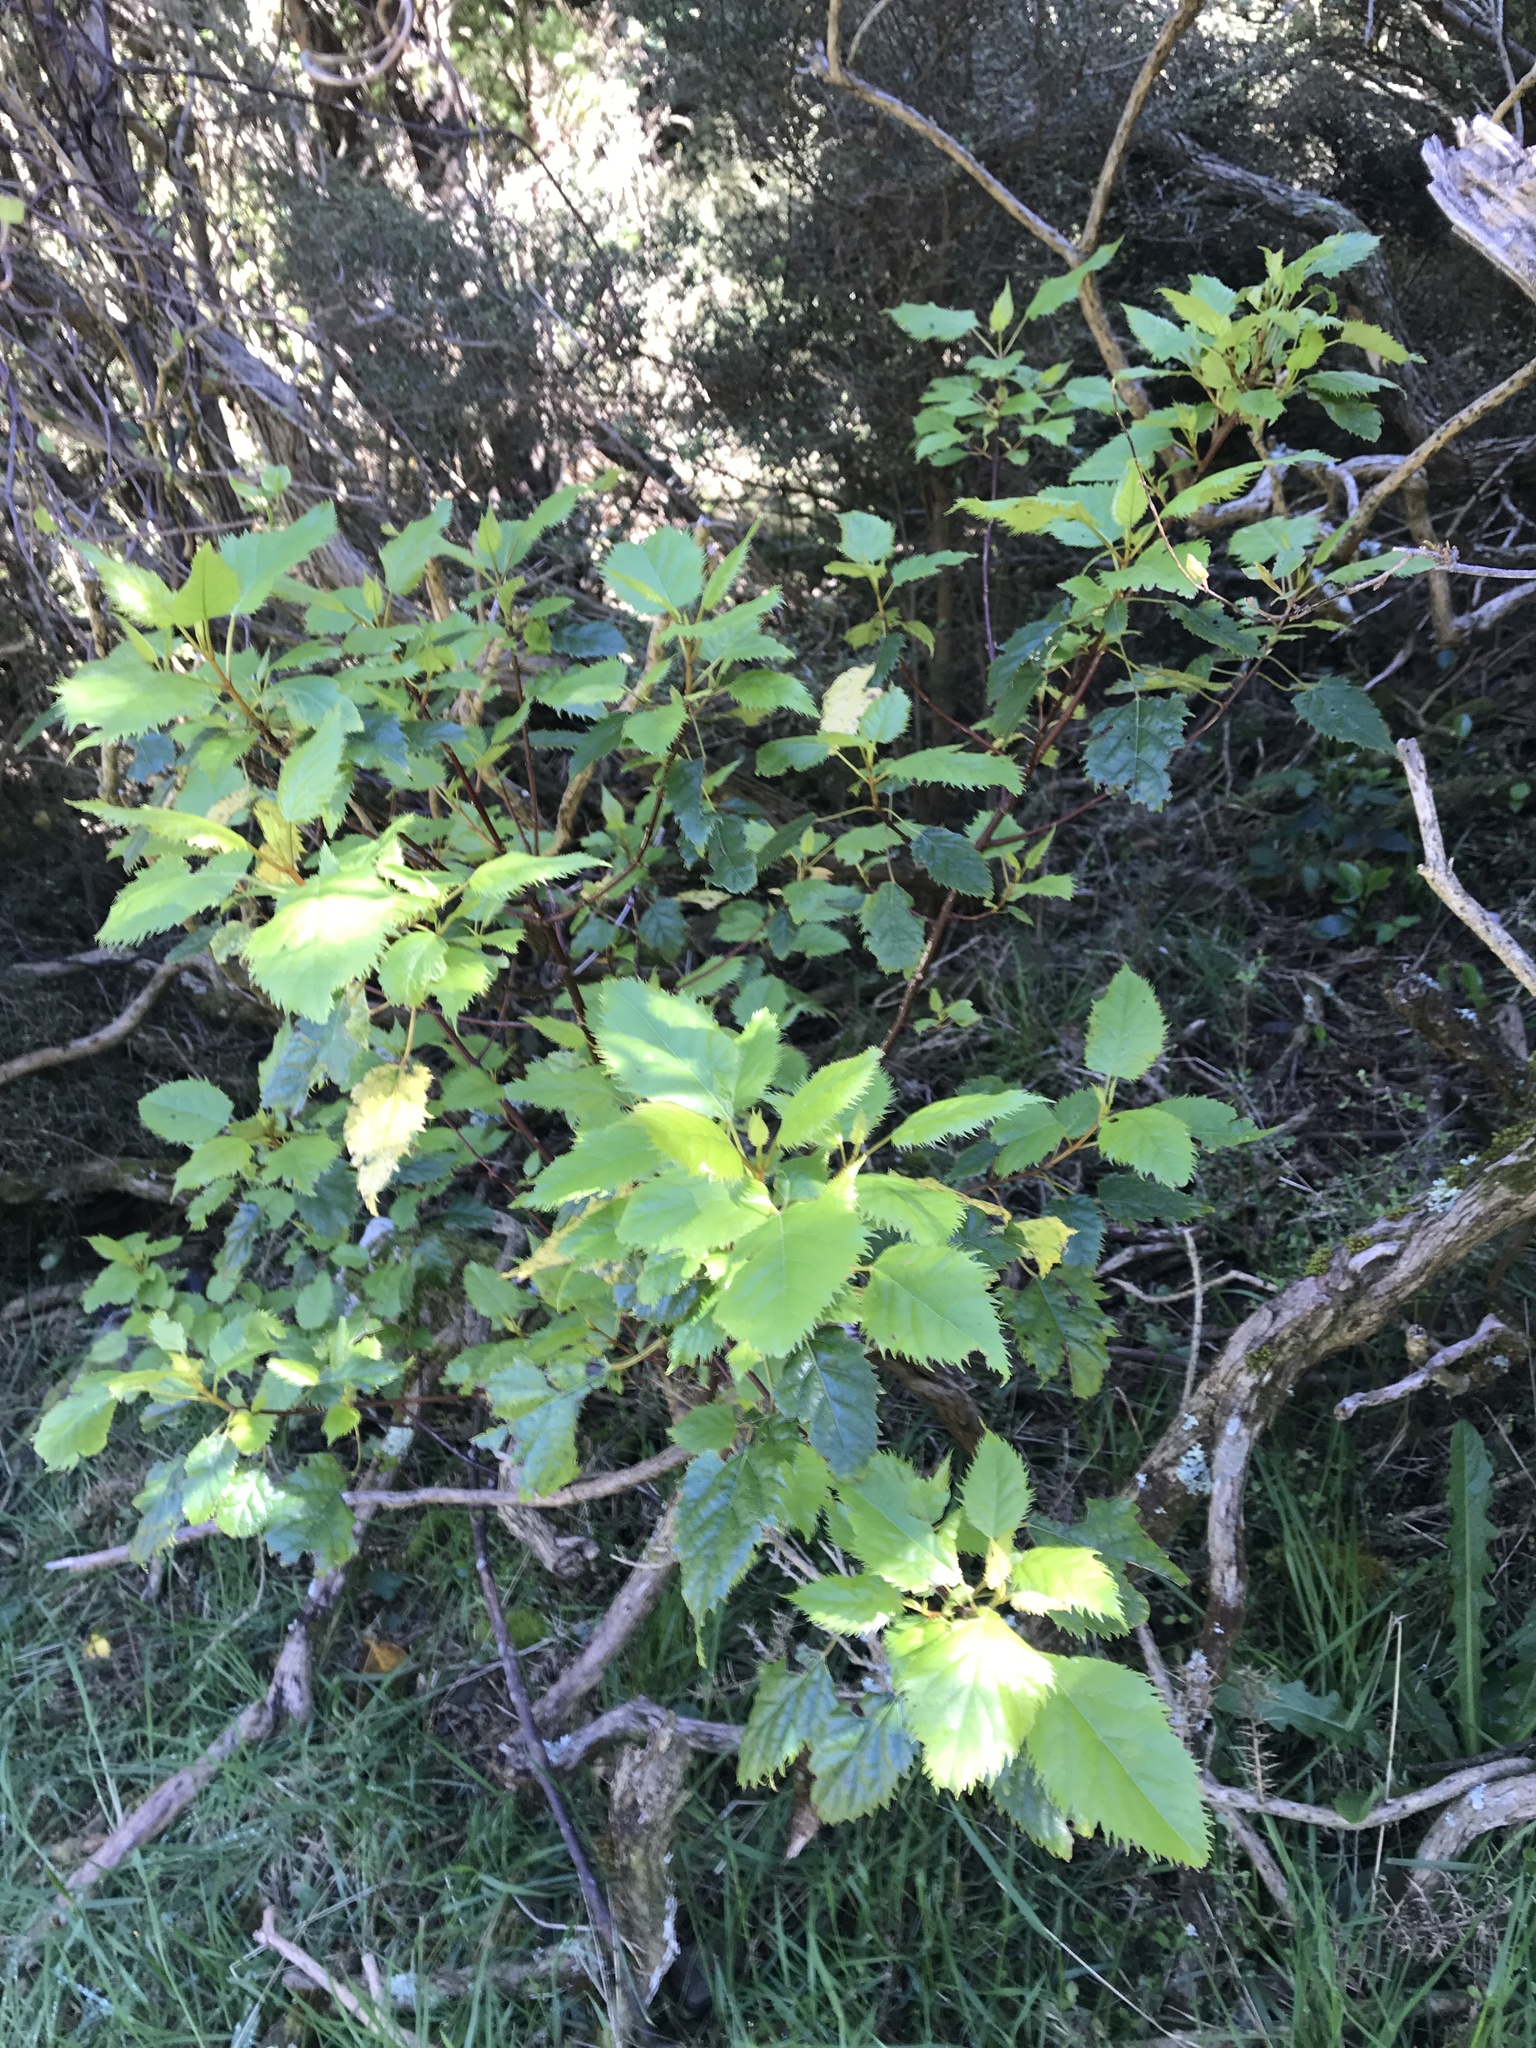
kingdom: Plantae
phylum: Tracheophyta
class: Magnoliopsida
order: Oxalidales
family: Elaeocarpaceae
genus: Aristotelia
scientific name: Aristotelia serrata
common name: New zealand wineberry
